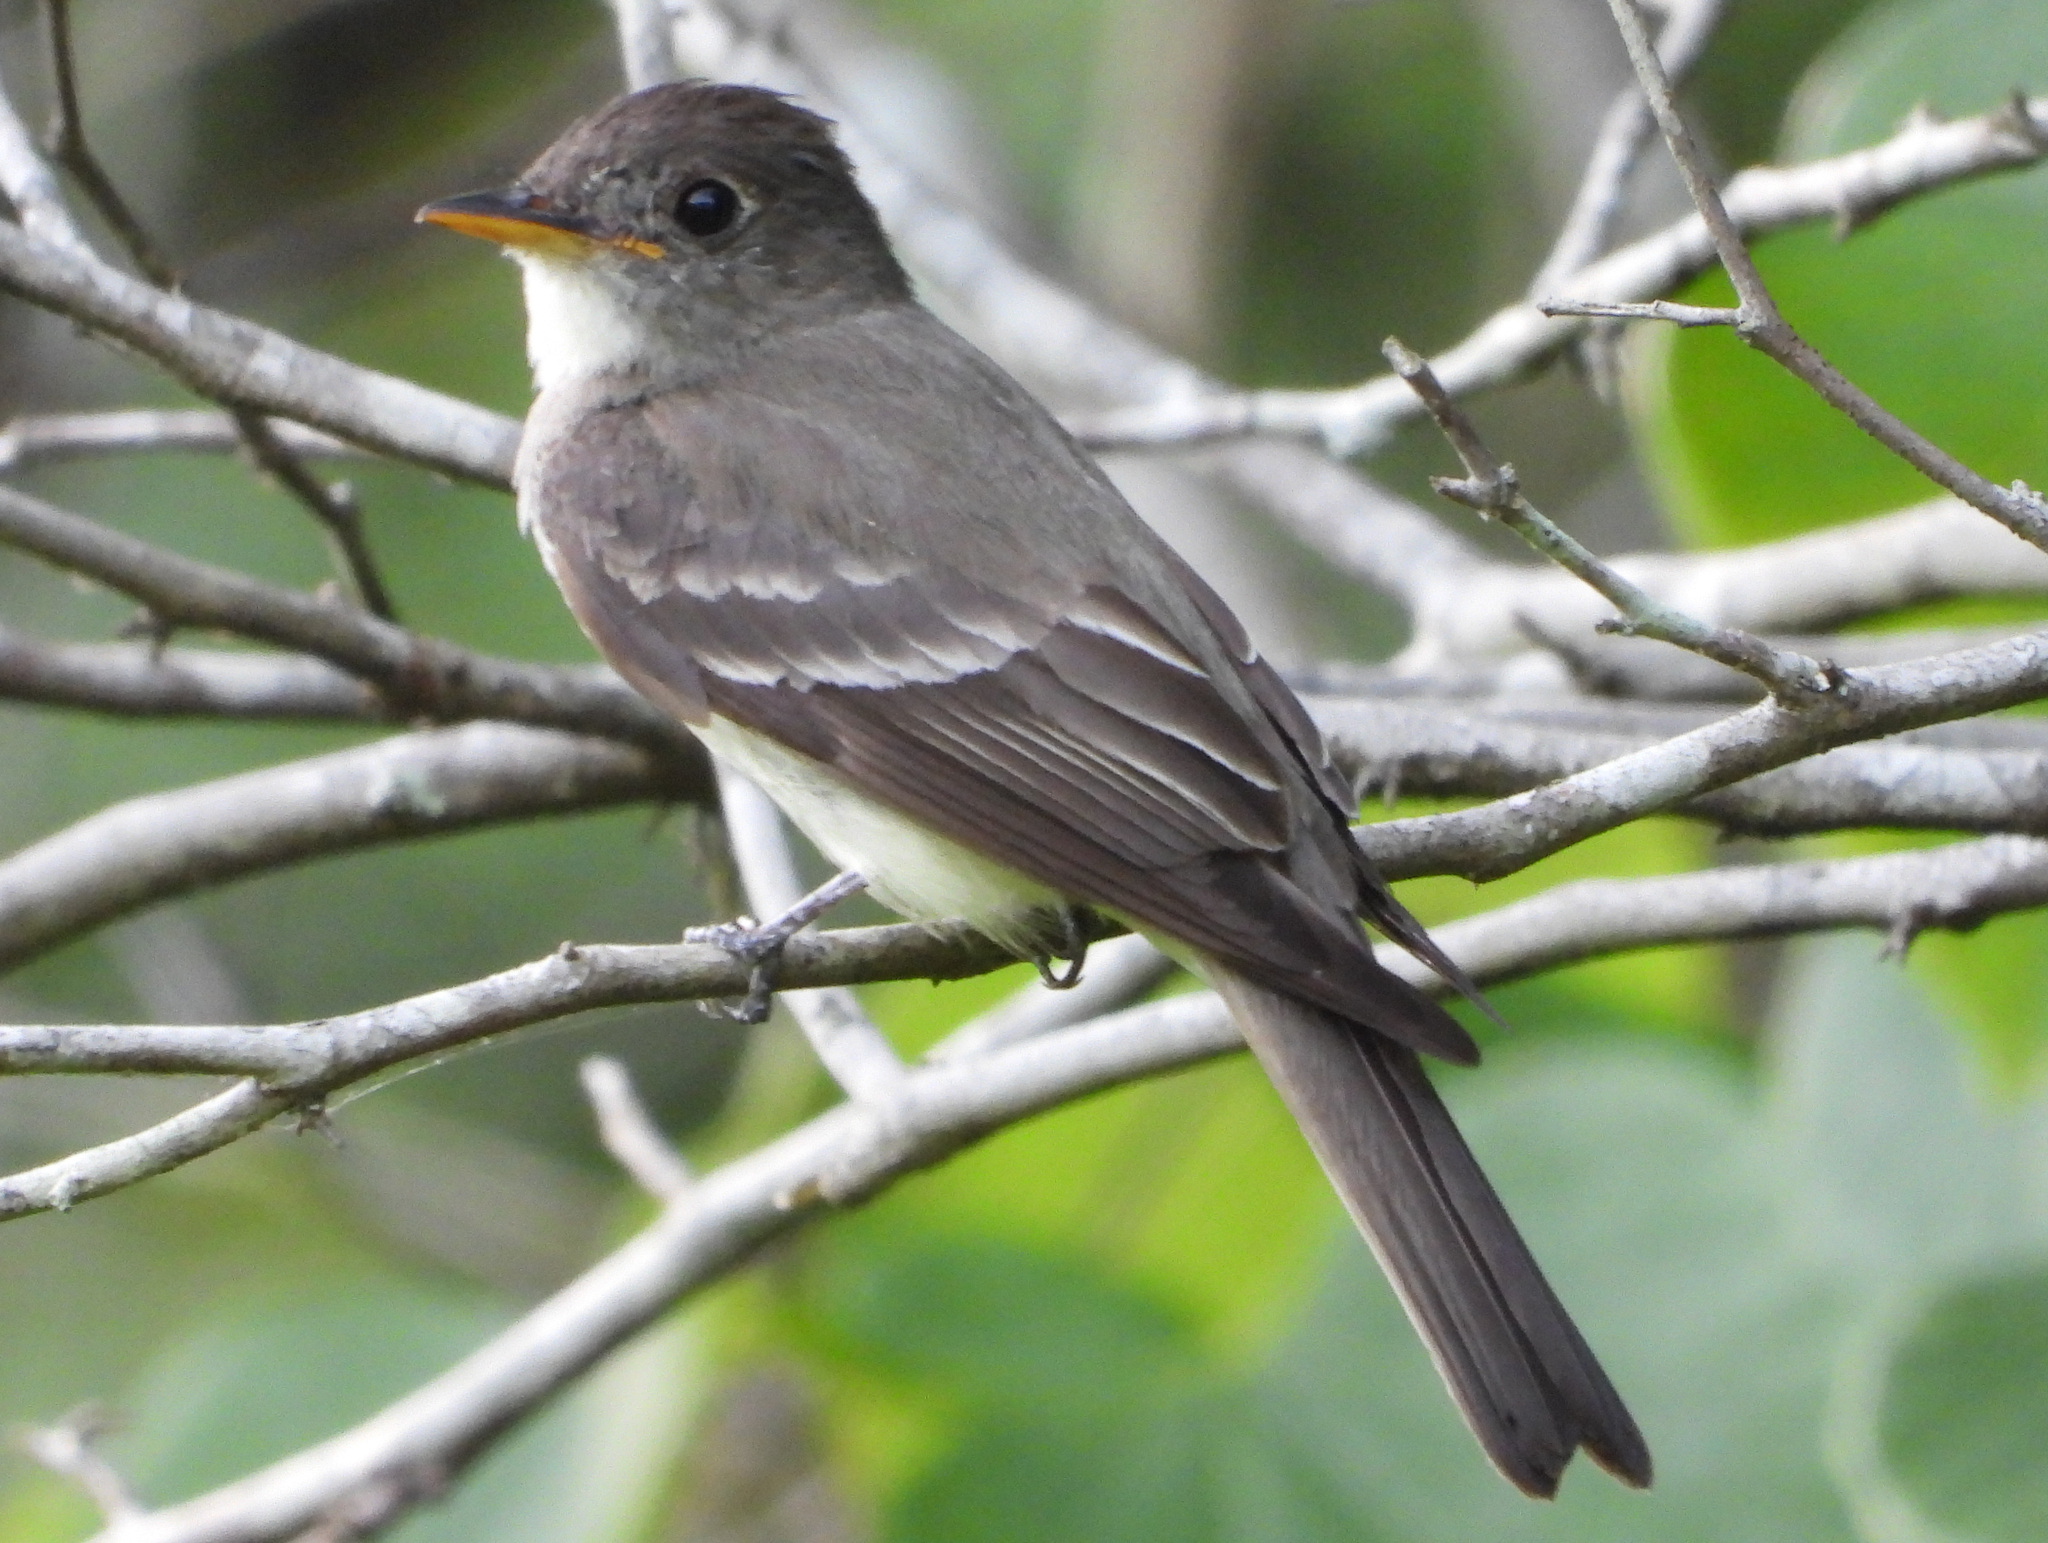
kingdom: Animalia
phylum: Chordata
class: Aves
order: Passeriformes
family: Tyrannidae
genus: Contopus
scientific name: Contopus virens
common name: Eastern wood-pewee
